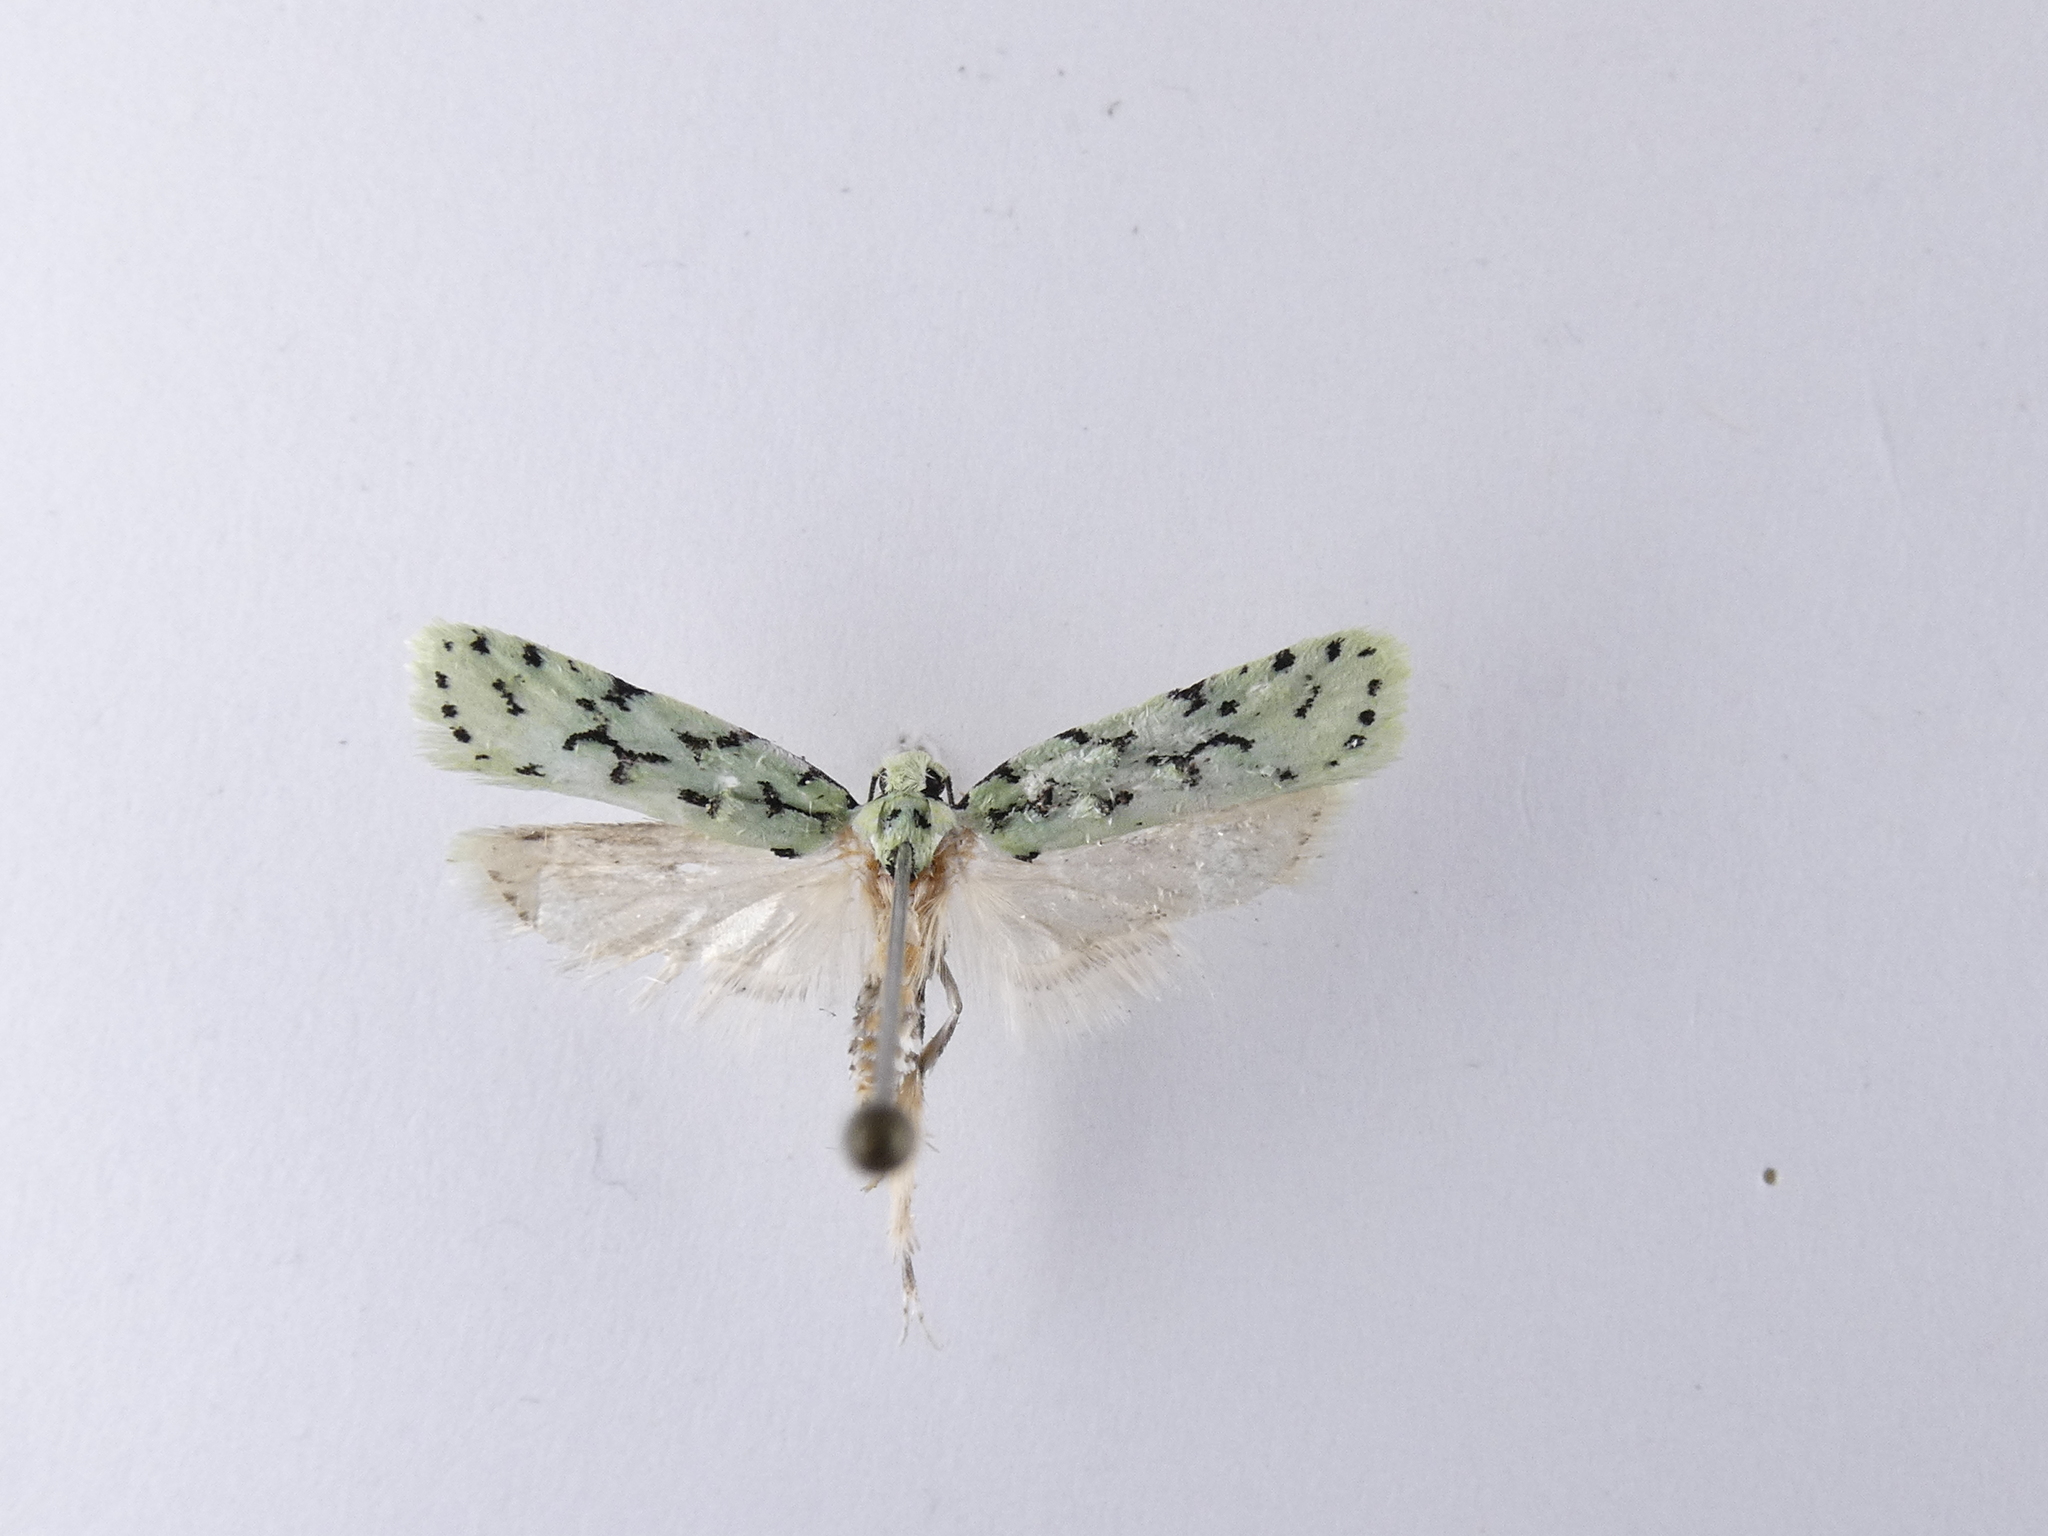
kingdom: Animalia
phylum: Arthropoda
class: Insecta
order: Lepidoptera
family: Oecophoridae
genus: Izatha
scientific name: Izatha huttoni
